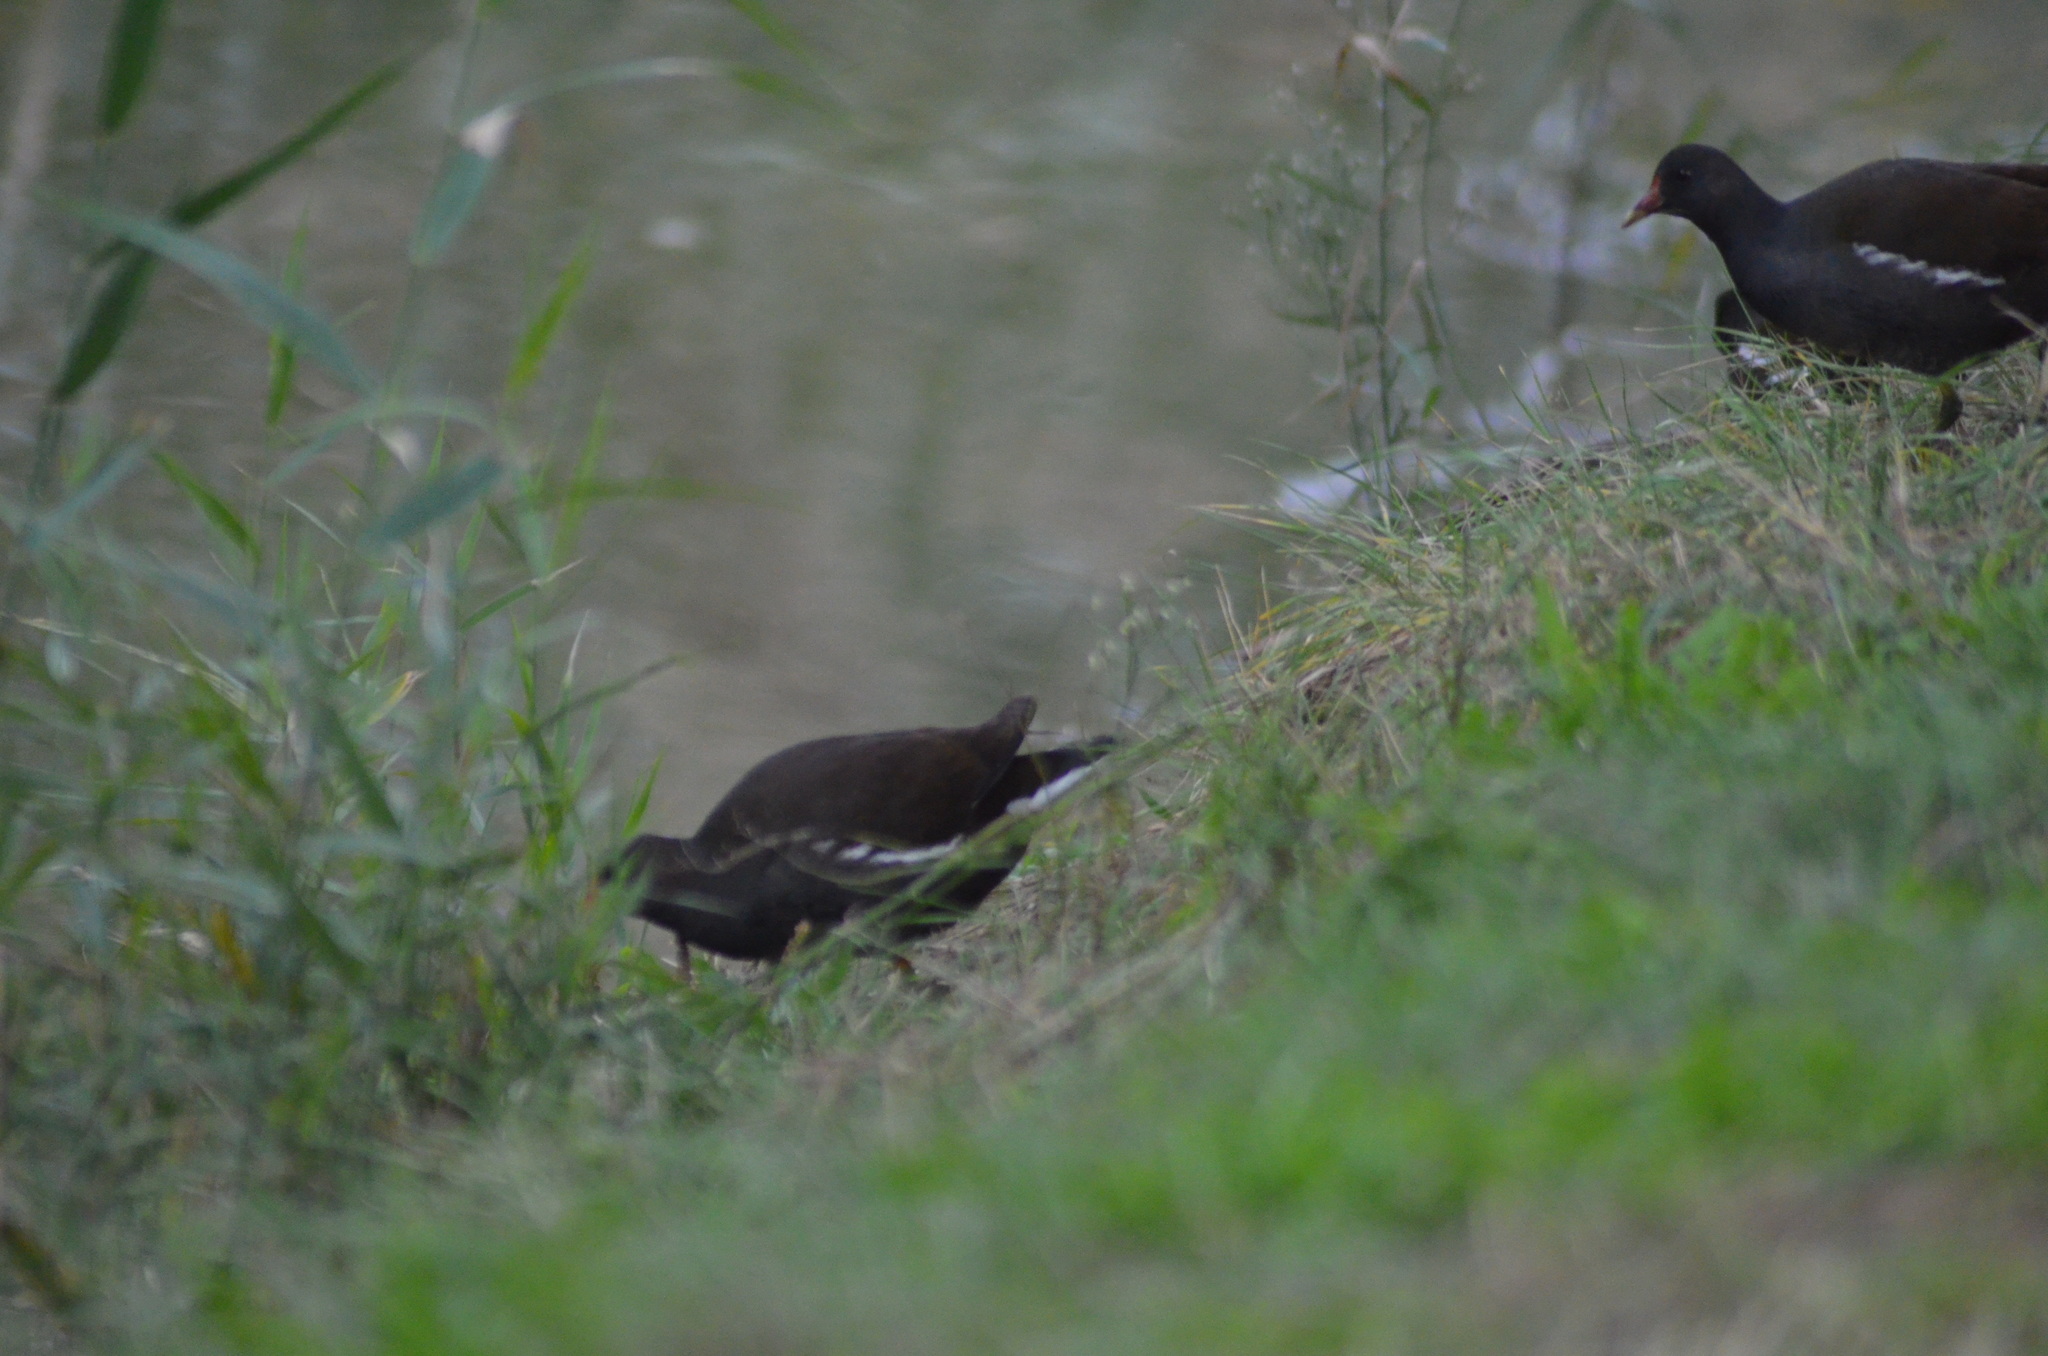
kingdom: Animalia
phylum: Chordata
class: Aves
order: Gruiformes
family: Rallidae
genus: Gallinula
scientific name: Gallinula chloropus
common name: Common moorhen
